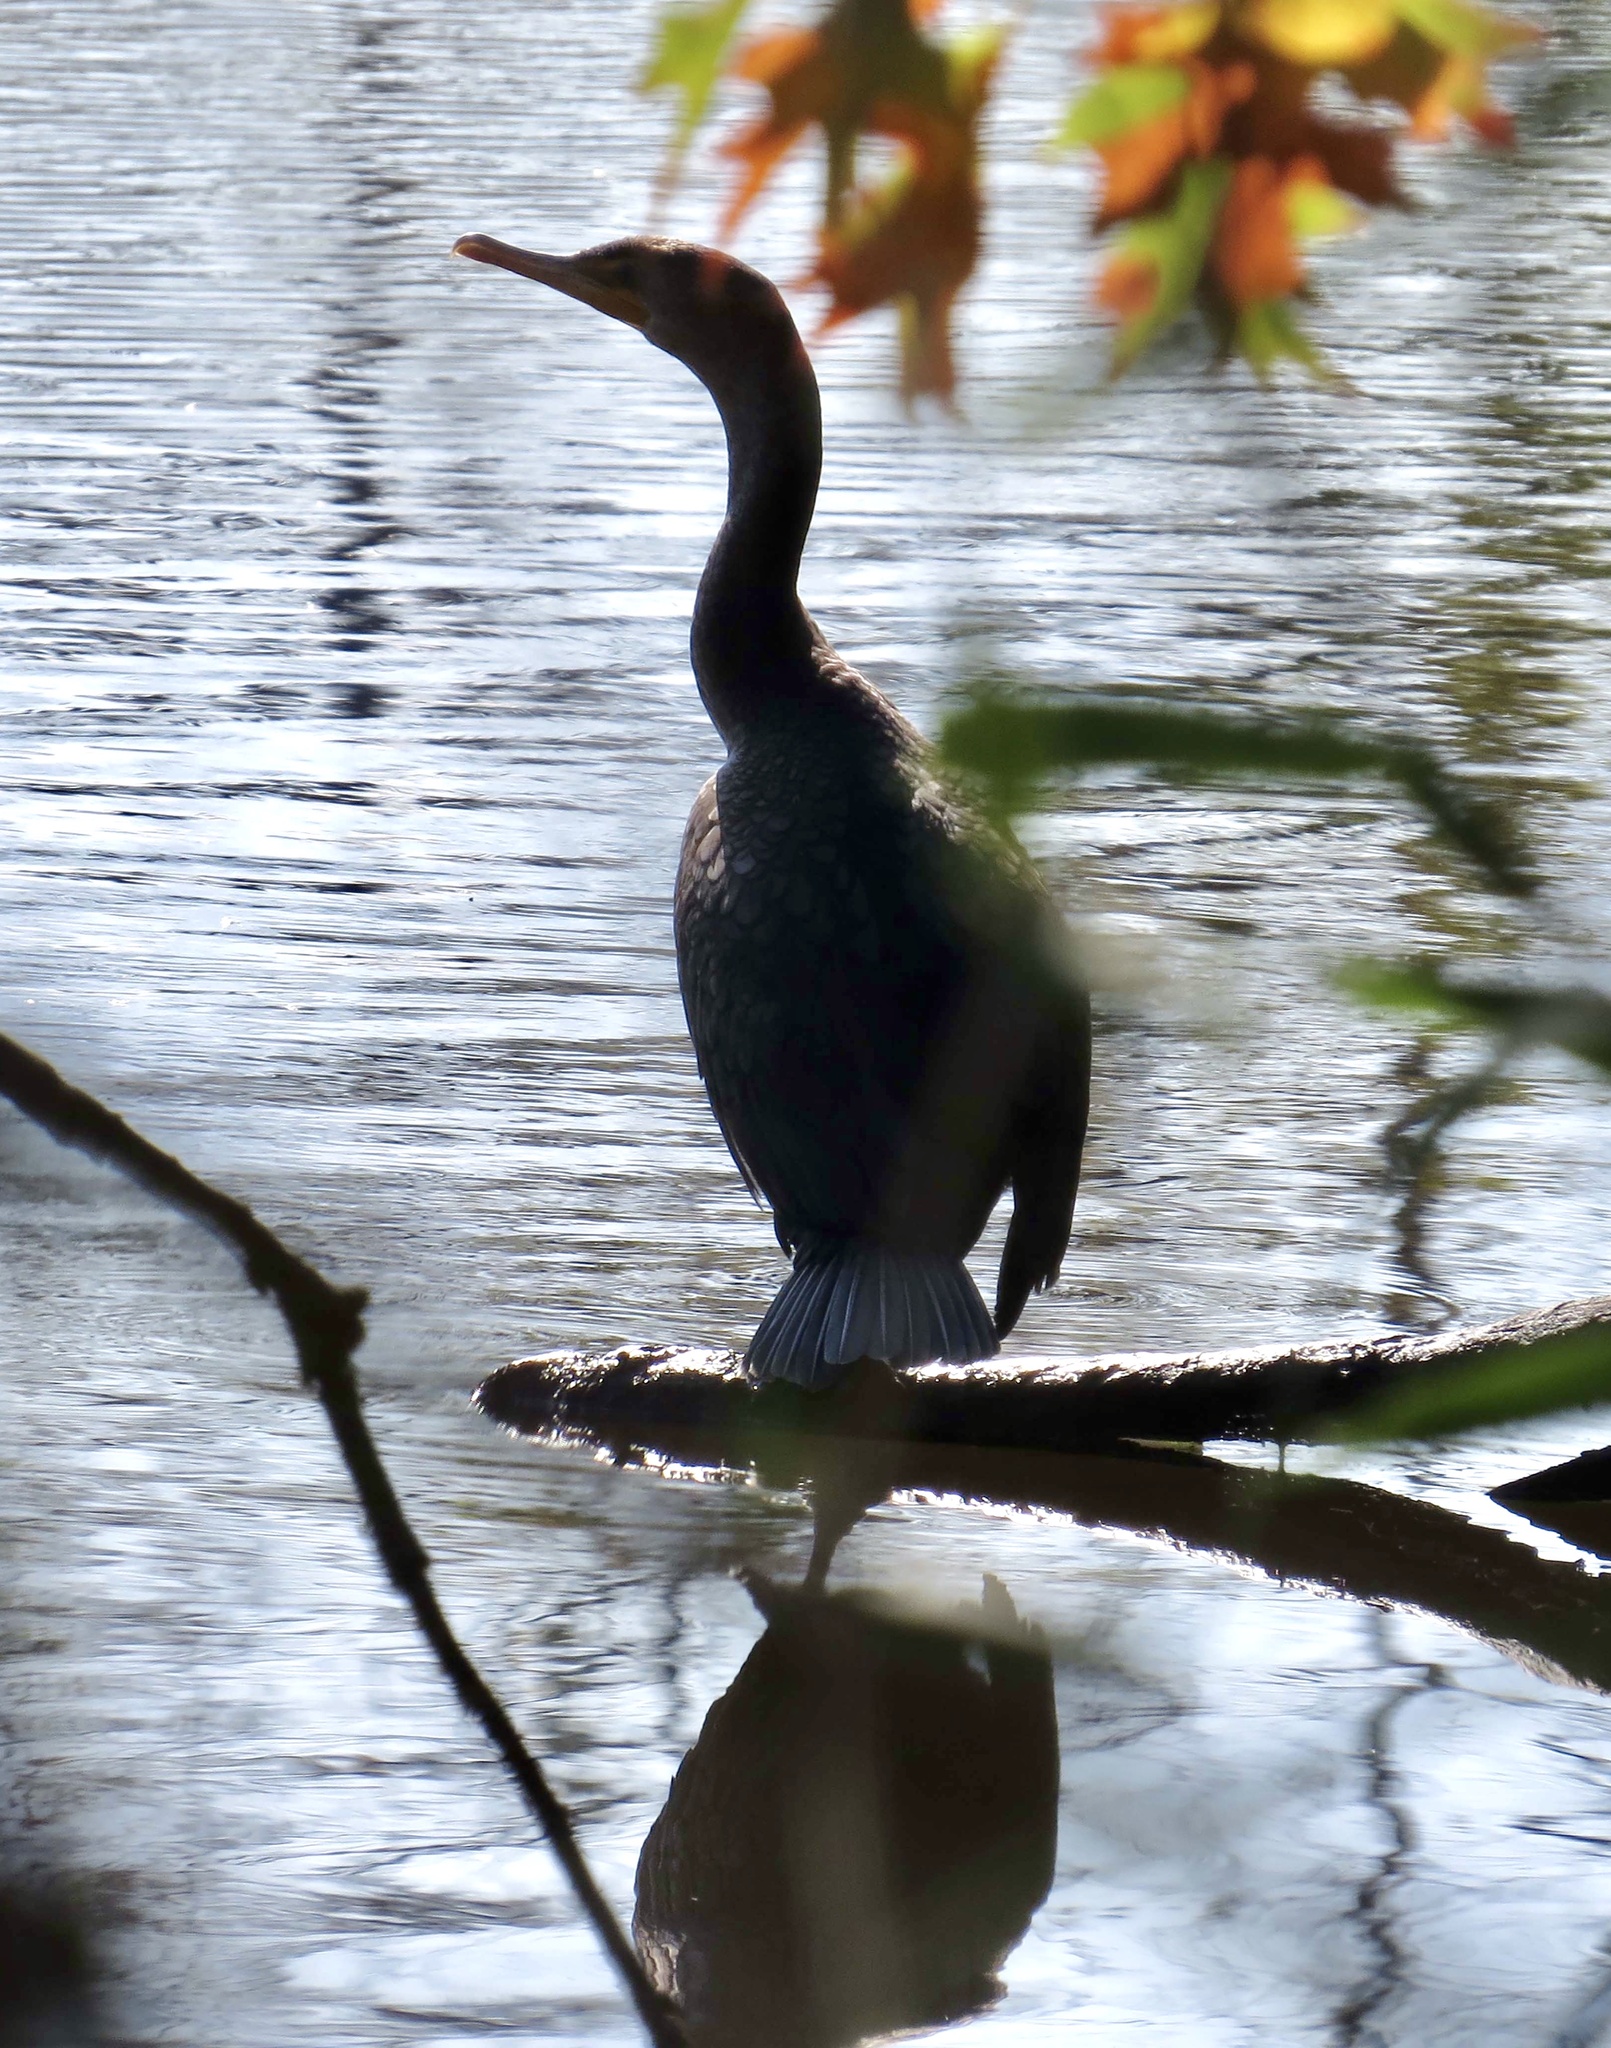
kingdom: Animalia
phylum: Chordata
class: Aves
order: Suliformes
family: Phalacrocoracidae
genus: Phalacrocorax
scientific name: Phalacrocorax auritus
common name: Double-crested cormorant
